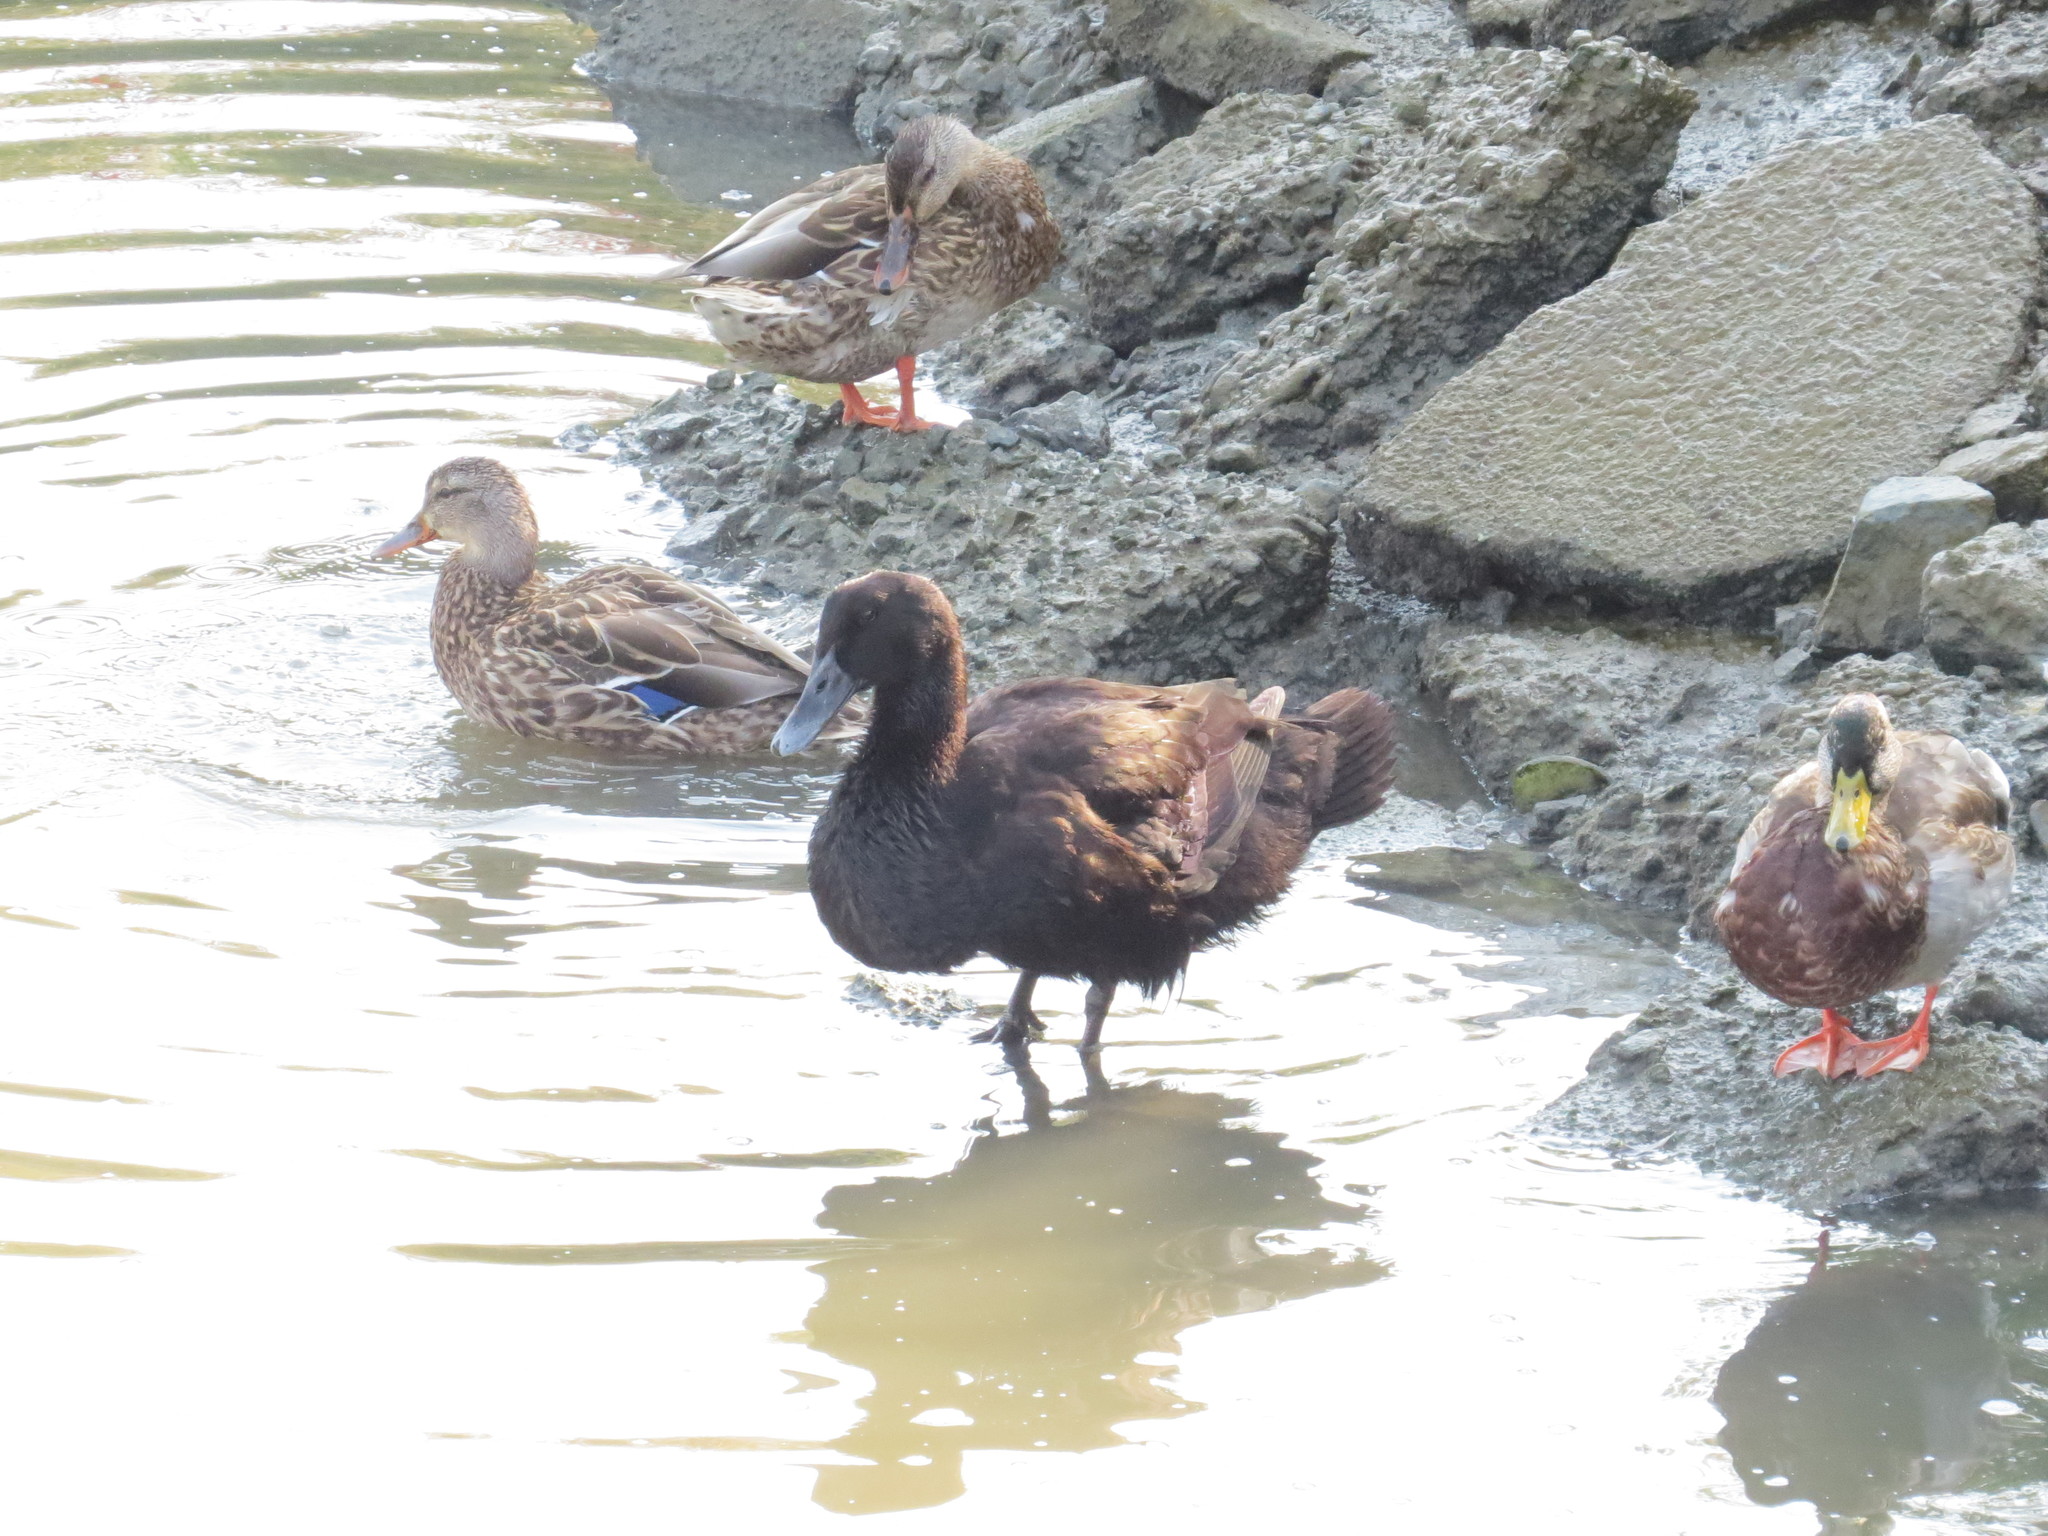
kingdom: Animalia
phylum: Chordata
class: Aves
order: Anseriformes
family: Anatidae
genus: Anas
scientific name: Anas platyrhynchos
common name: Mallard
